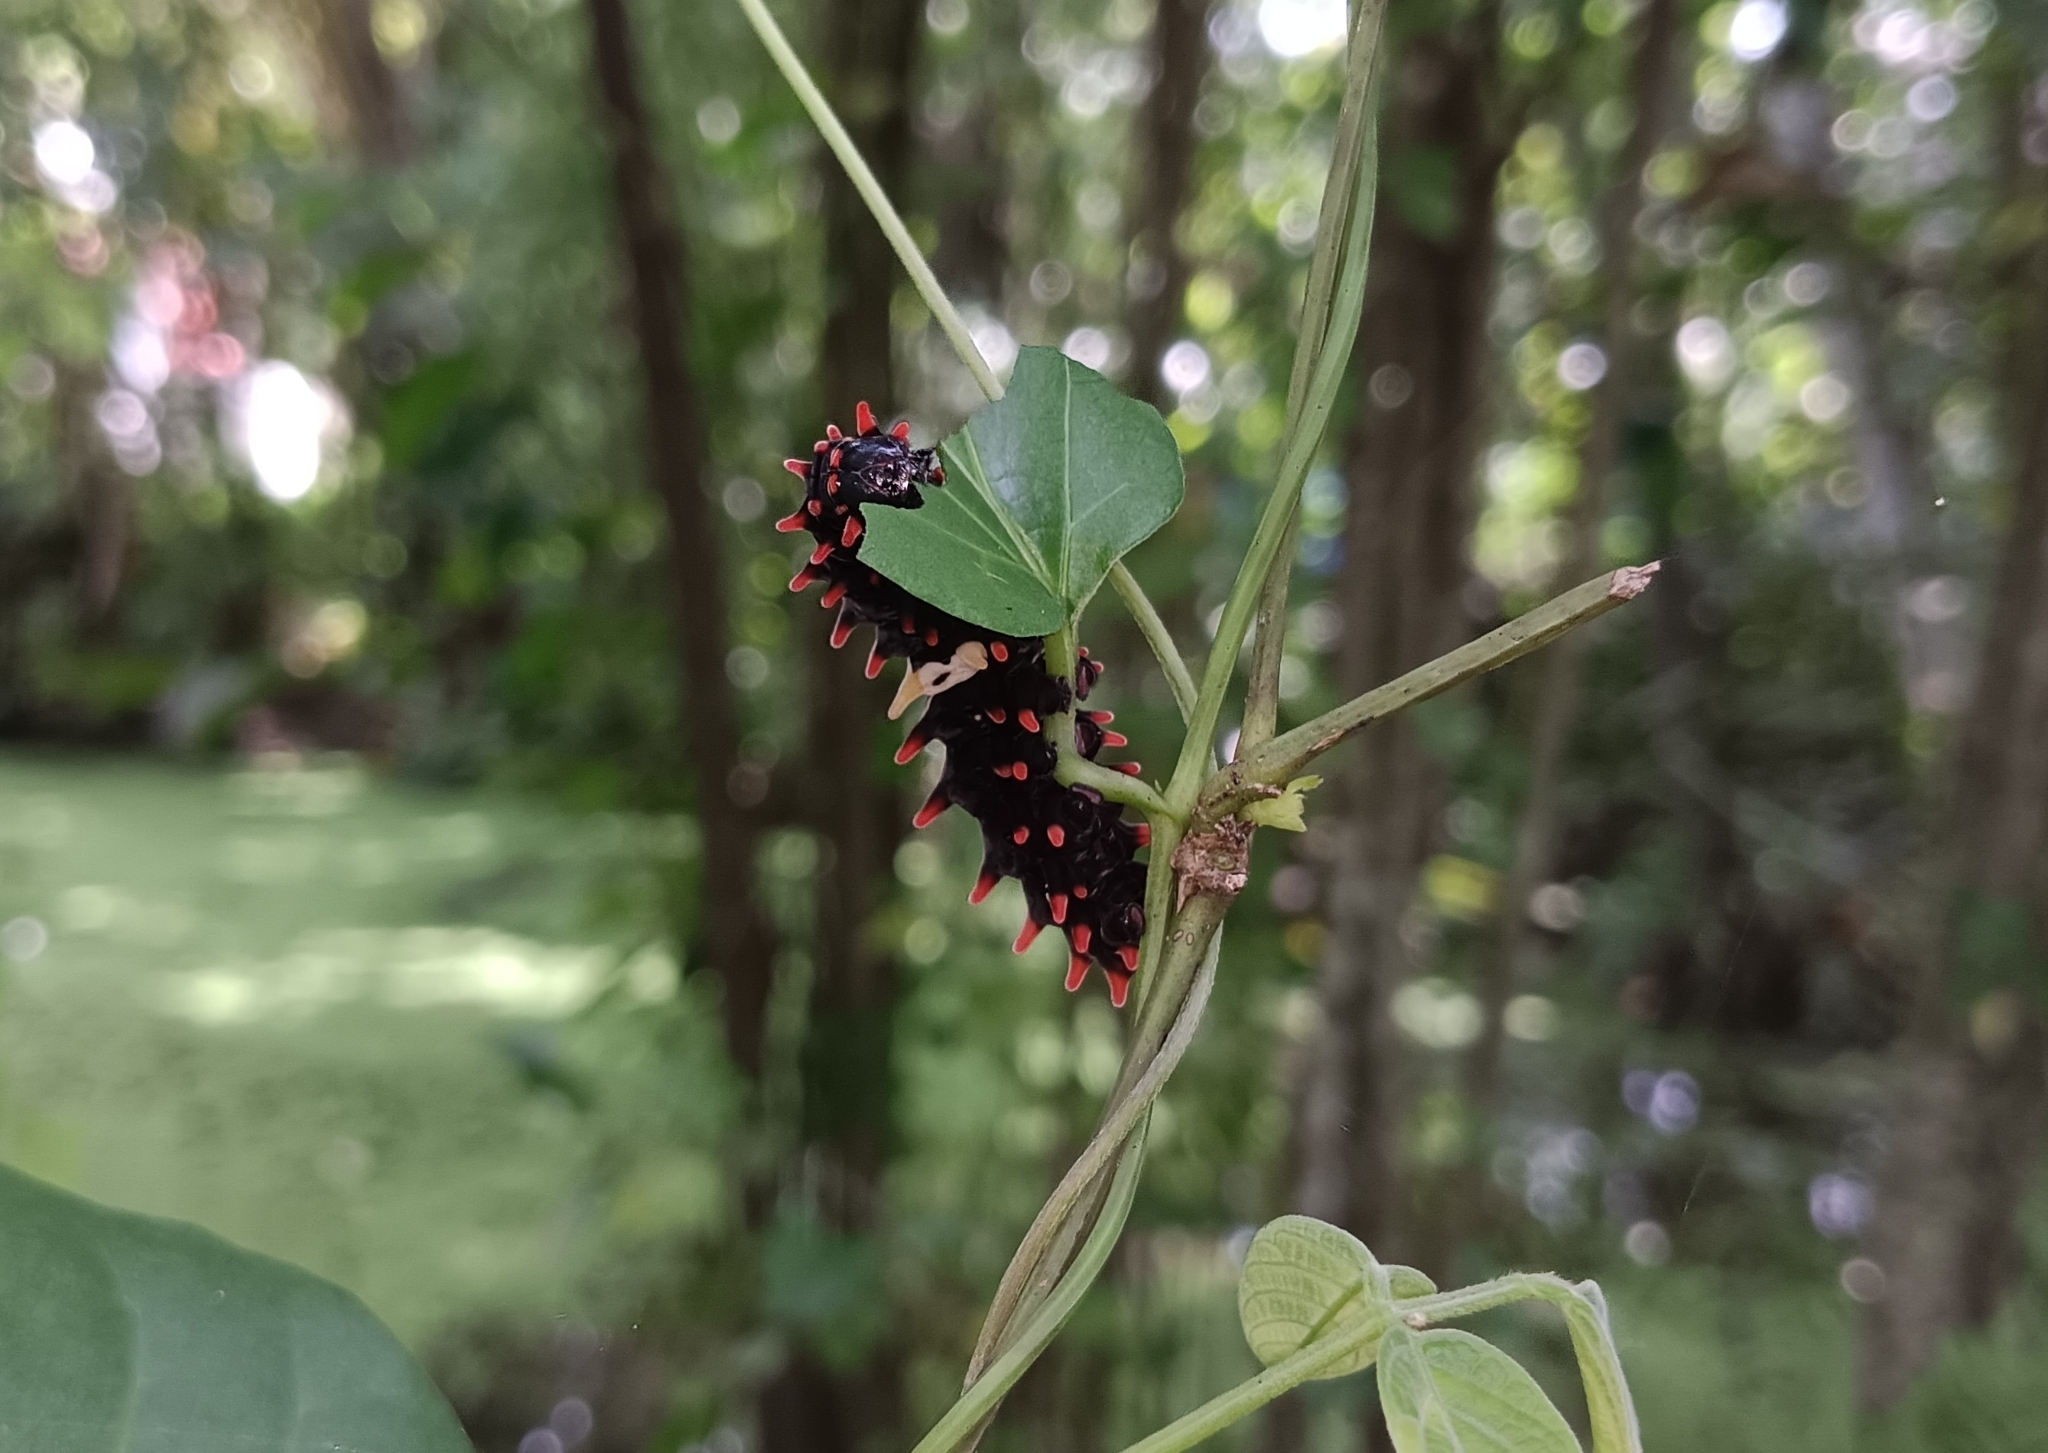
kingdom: Animalia
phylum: Arthropoda
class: Insecta
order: Lepidoptera
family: Papilionidae
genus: Pachliopta
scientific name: Pachliopta aristolochiae
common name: Common rose
